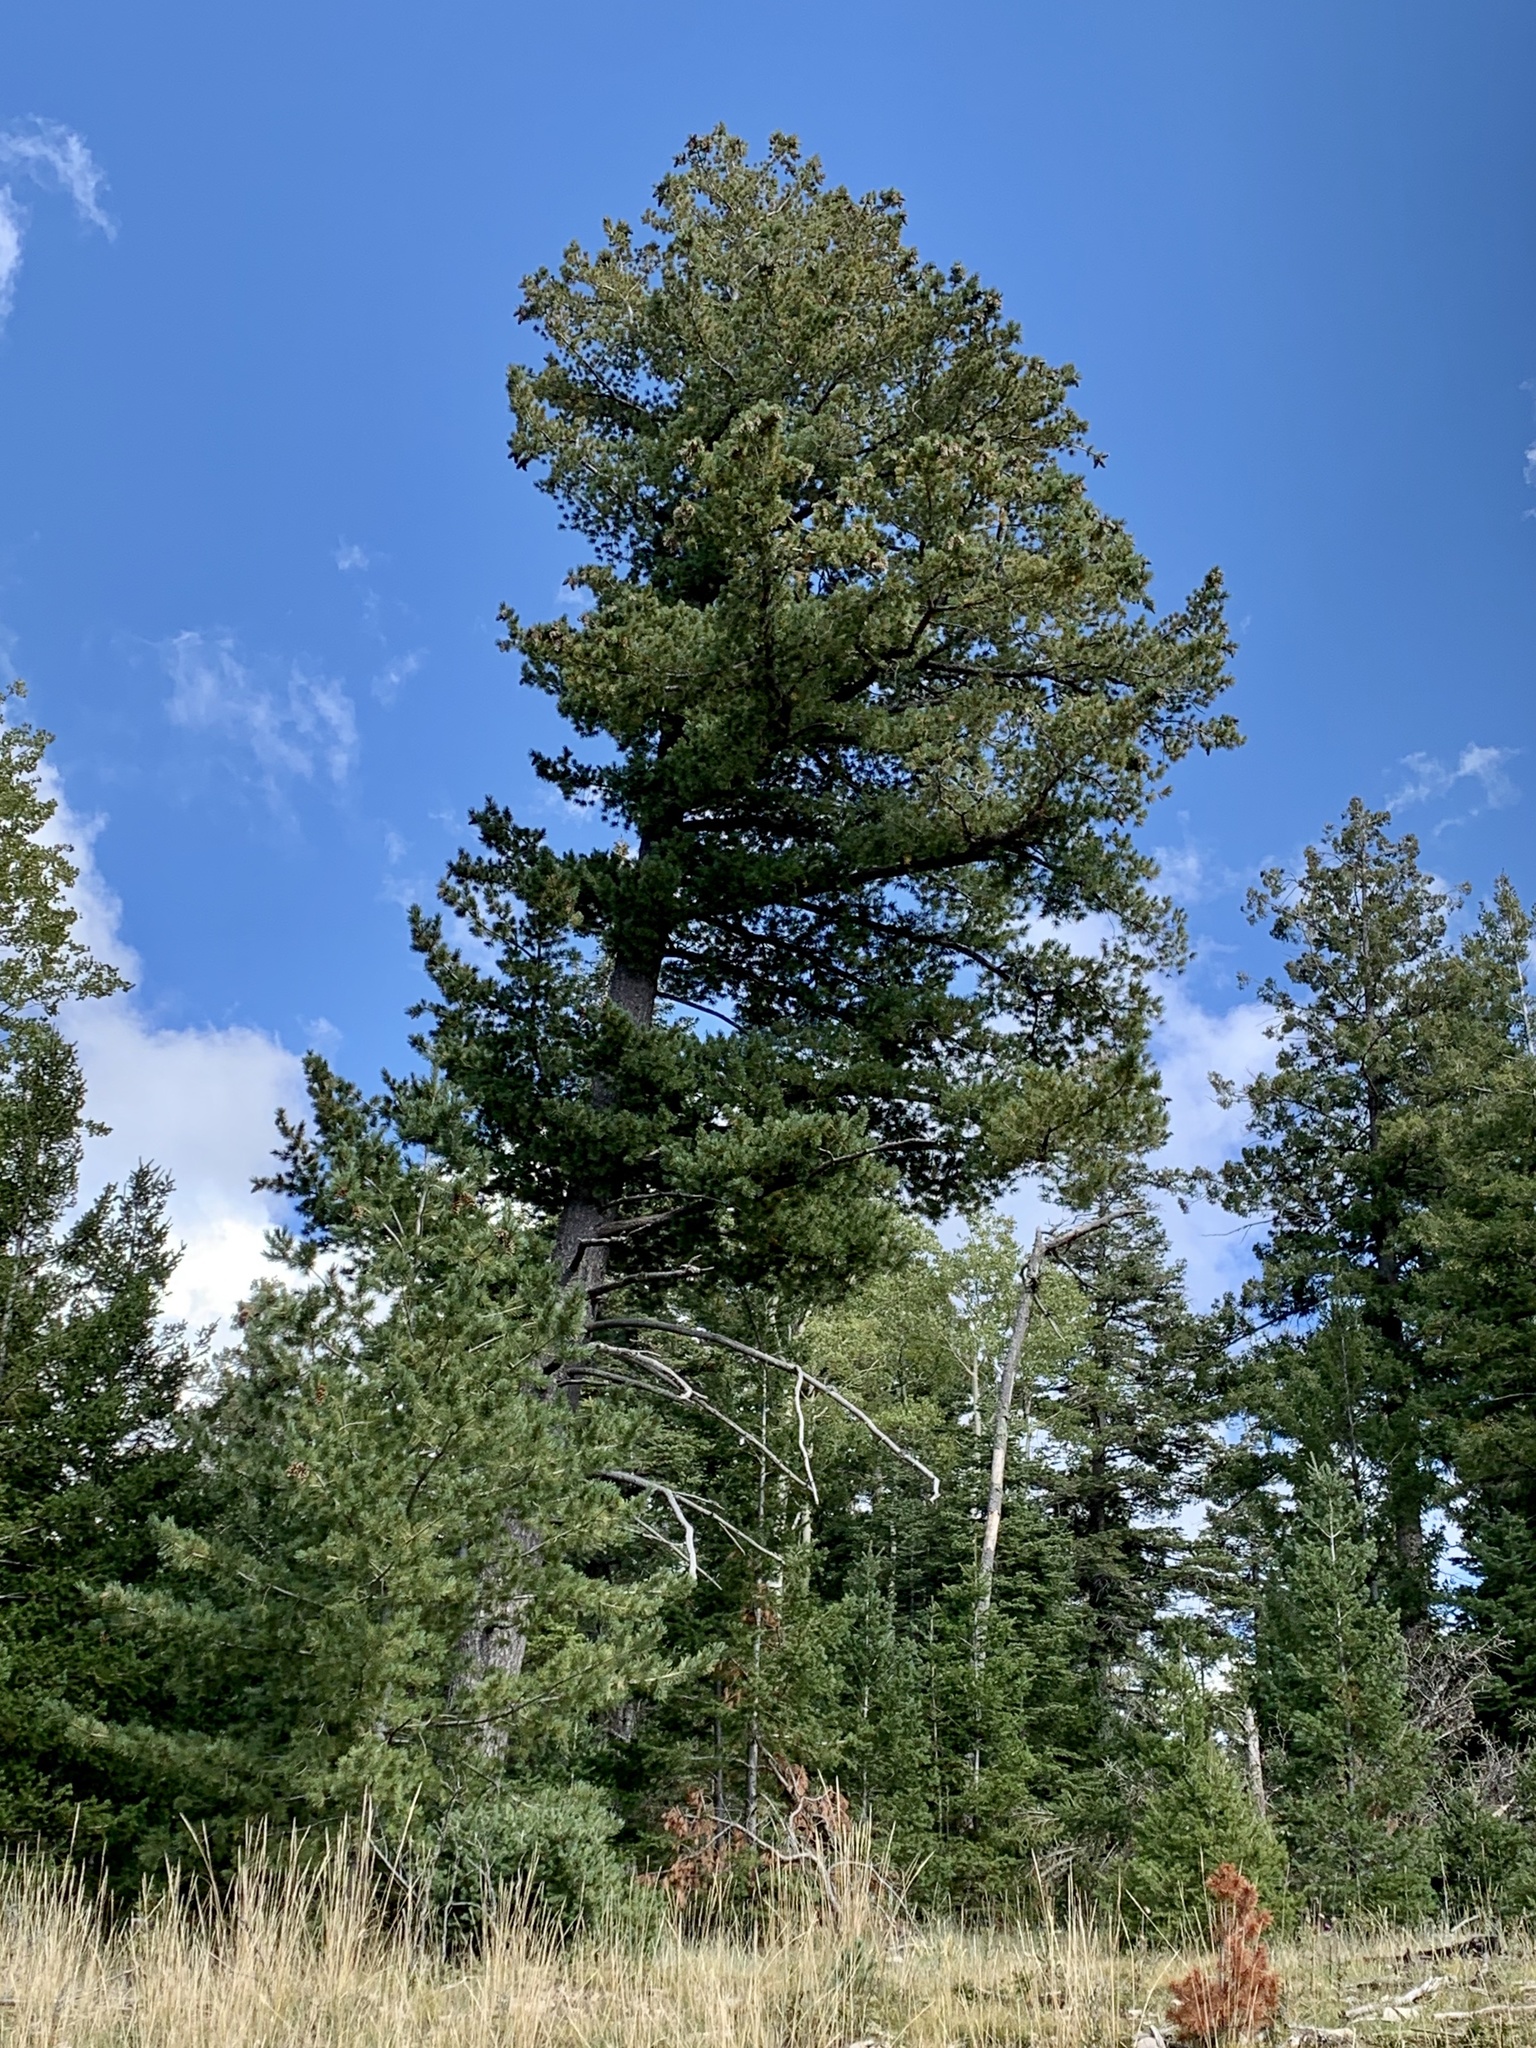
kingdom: Plantae
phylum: Tracheophyta
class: Pinopsida
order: Pinales
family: Pinaceae
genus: Pinus
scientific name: Pinus strobiformis
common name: Southwestern white pine
